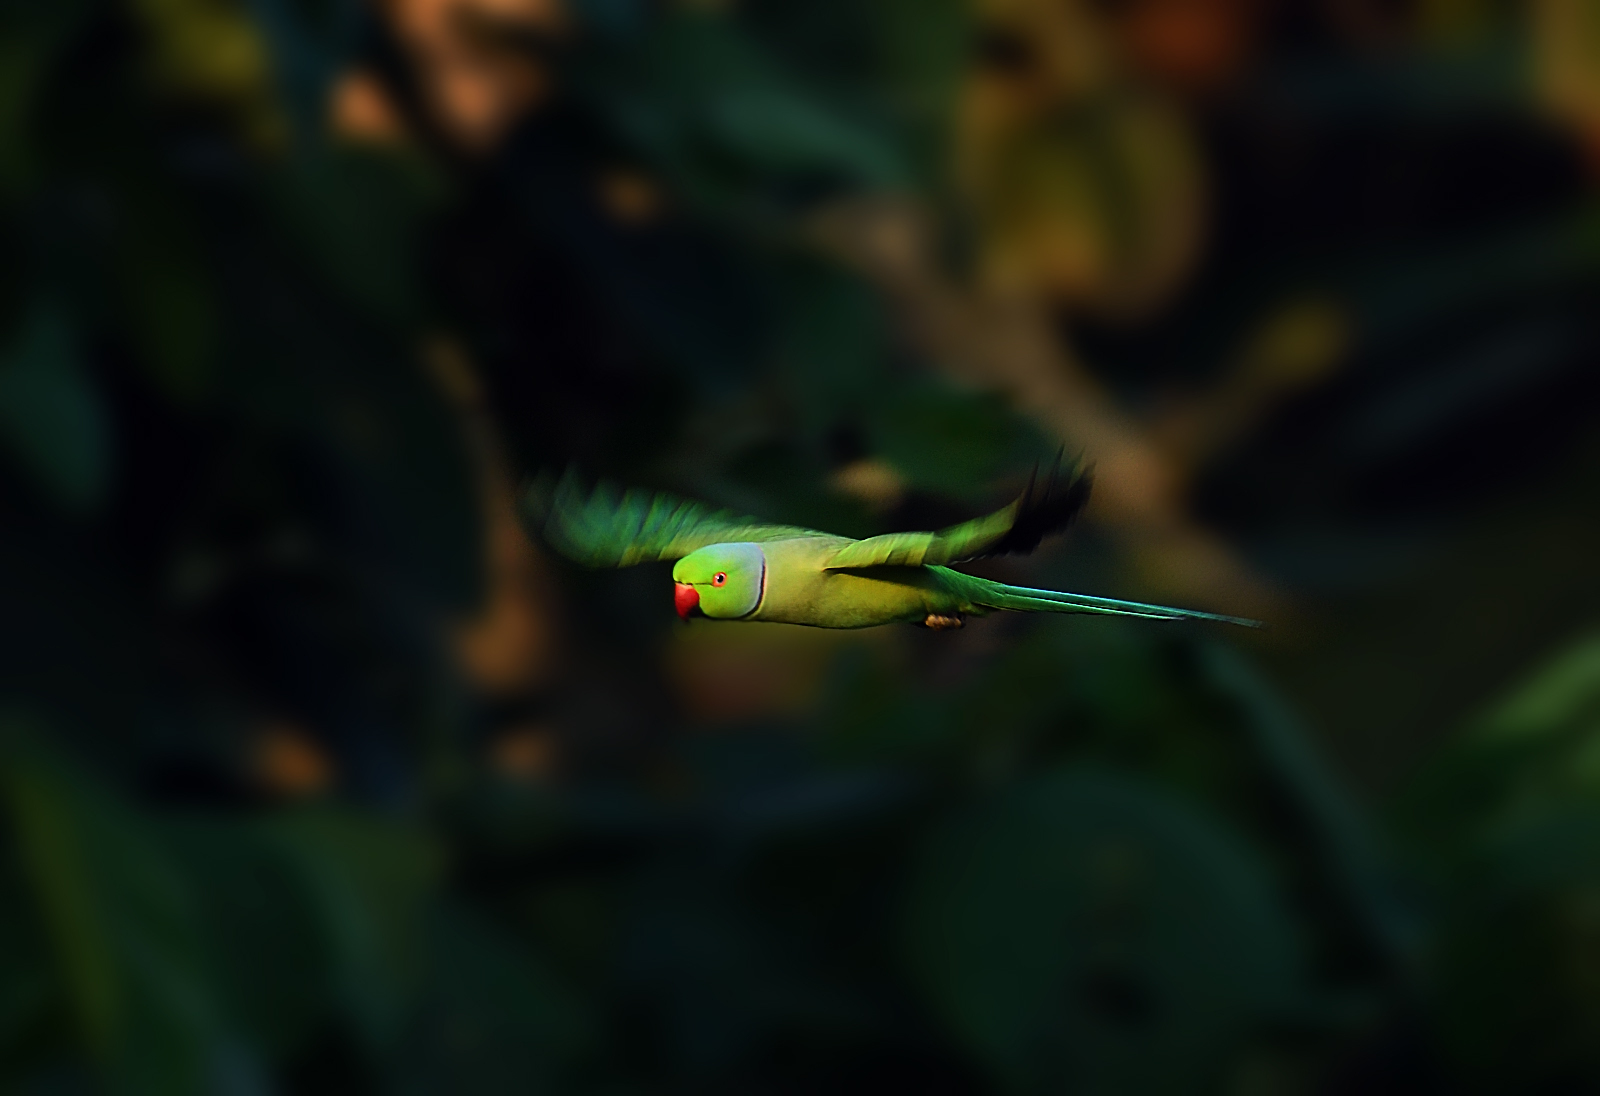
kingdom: Animalia
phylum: Chordata
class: Aves
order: Psittaciformes
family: Psittacidae
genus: Psittacula
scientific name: Psittacula krameri
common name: Rose-ringed parakeet
